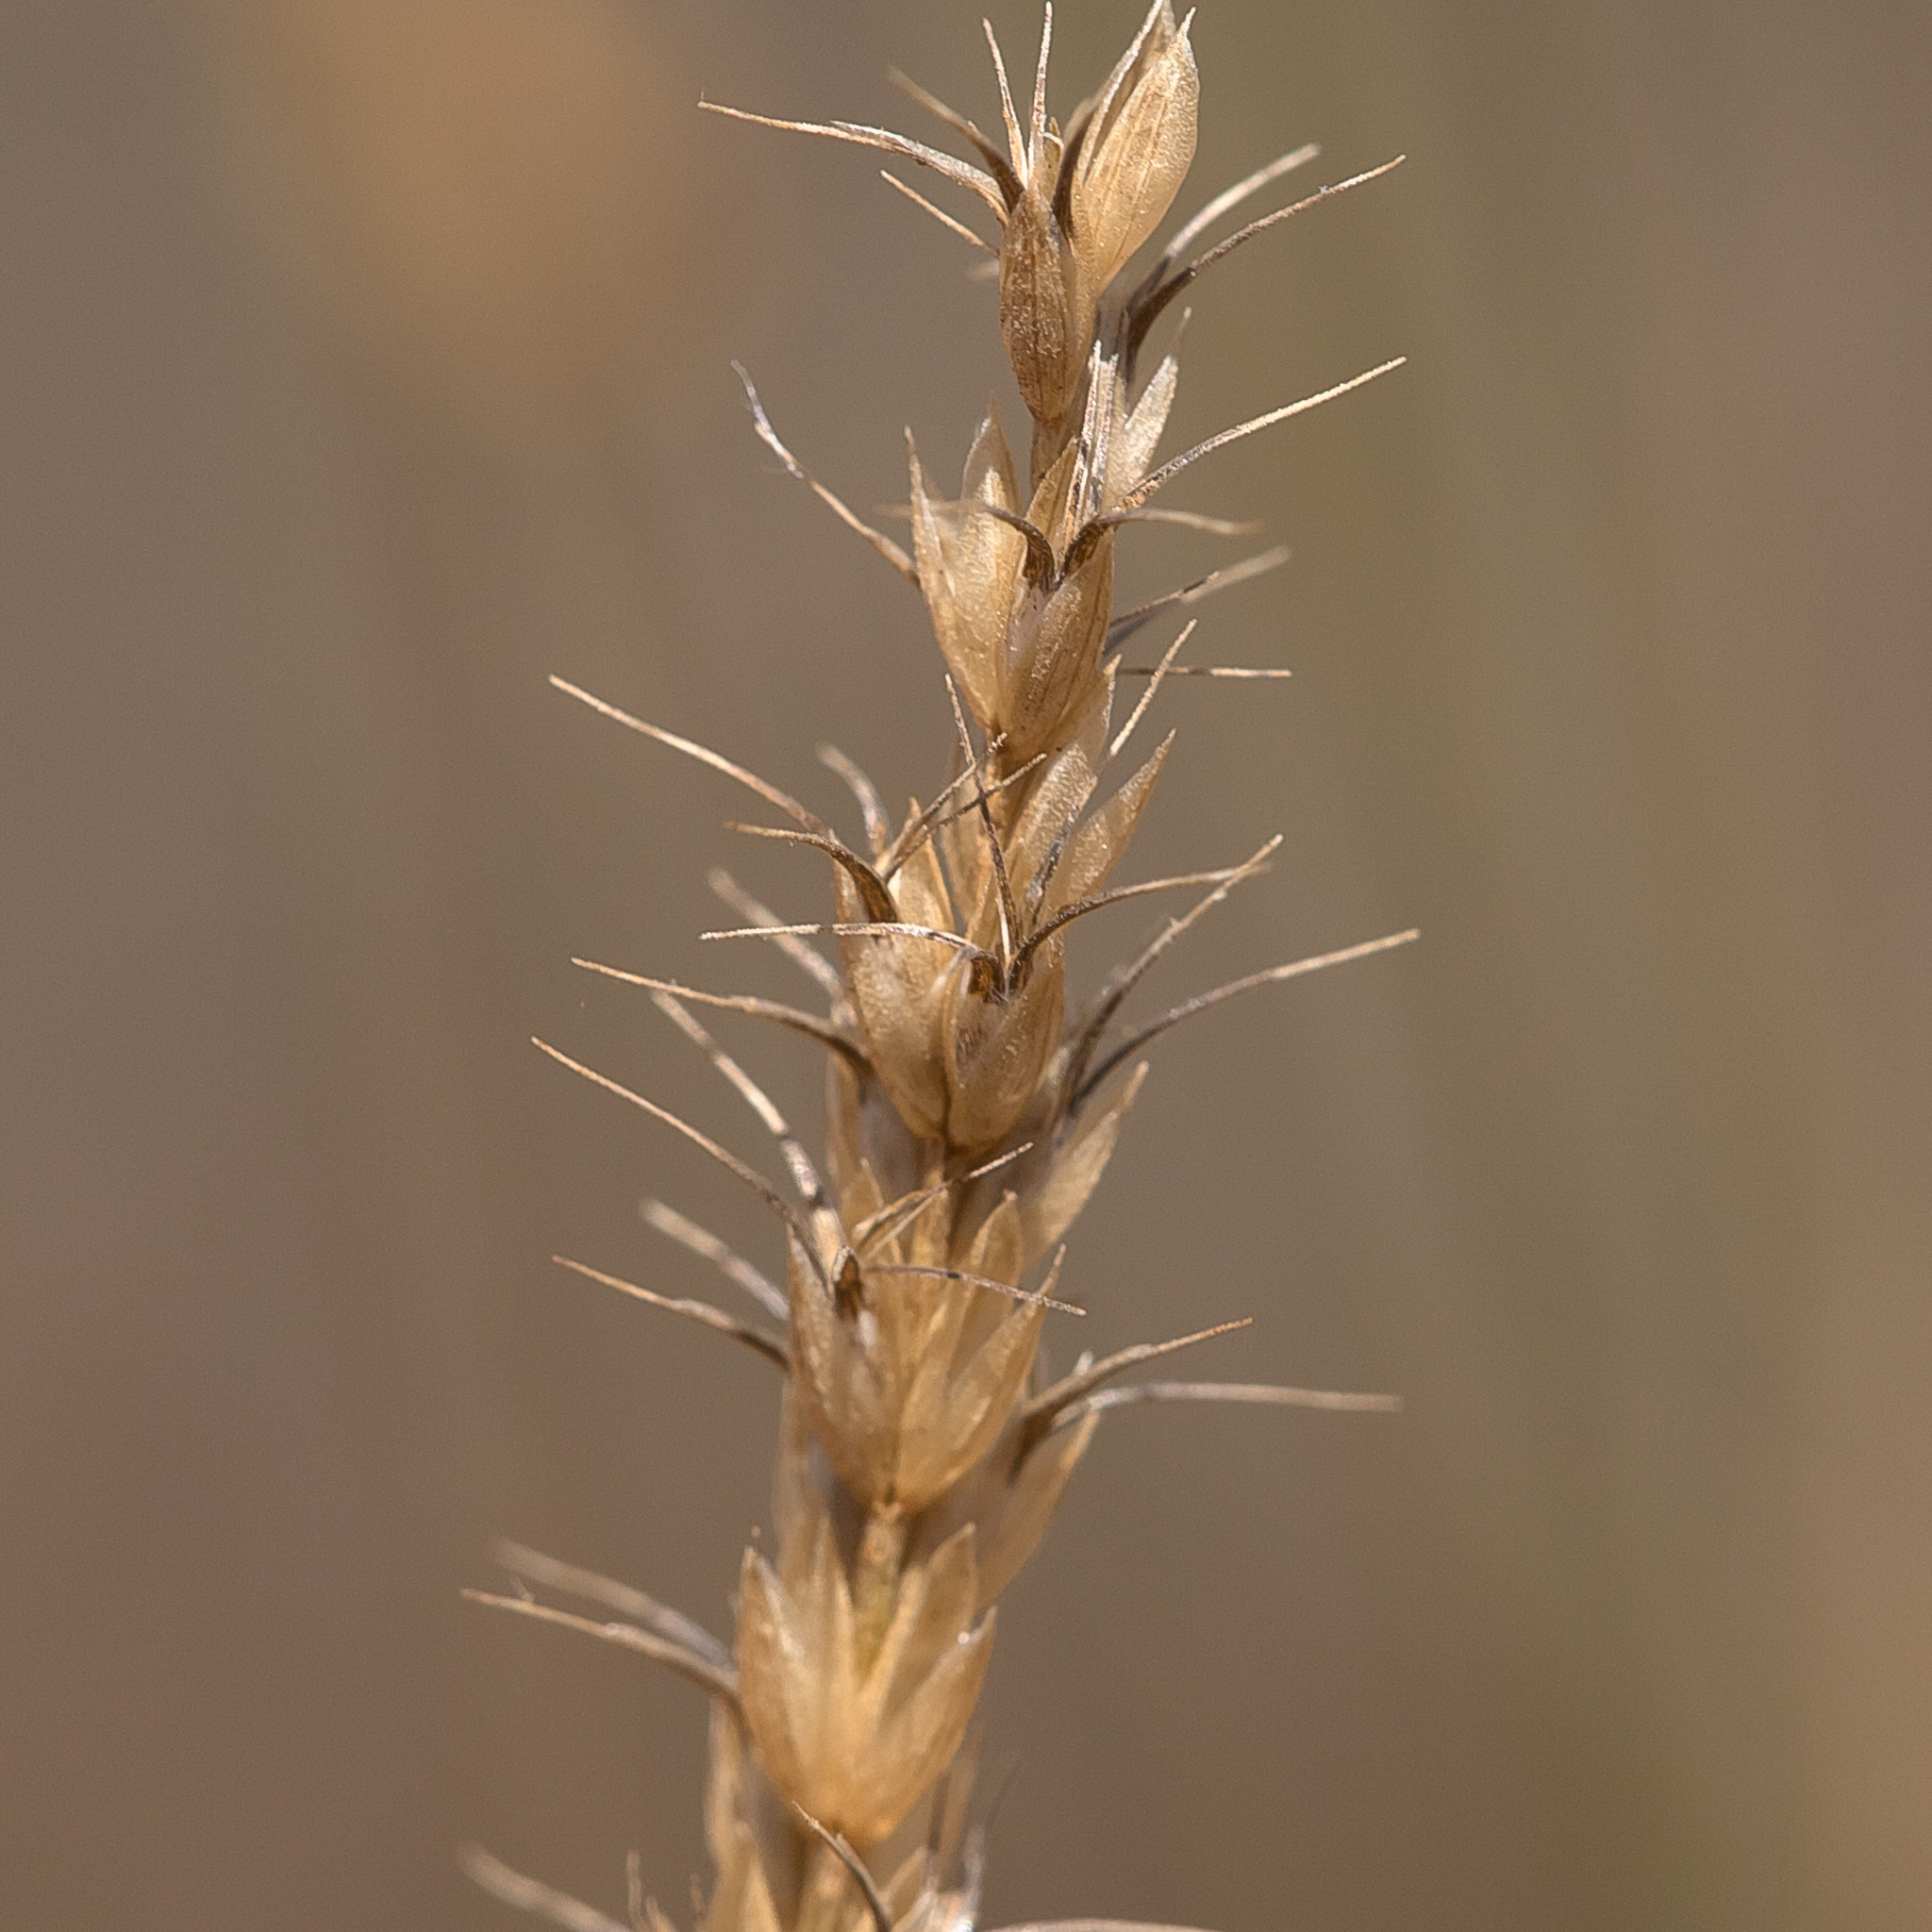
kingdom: Plantae
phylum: Tracheophyta
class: Liliopsida
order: Poales
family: Poaceae
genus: Amphipogon
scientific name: Amphipogon sericeus
